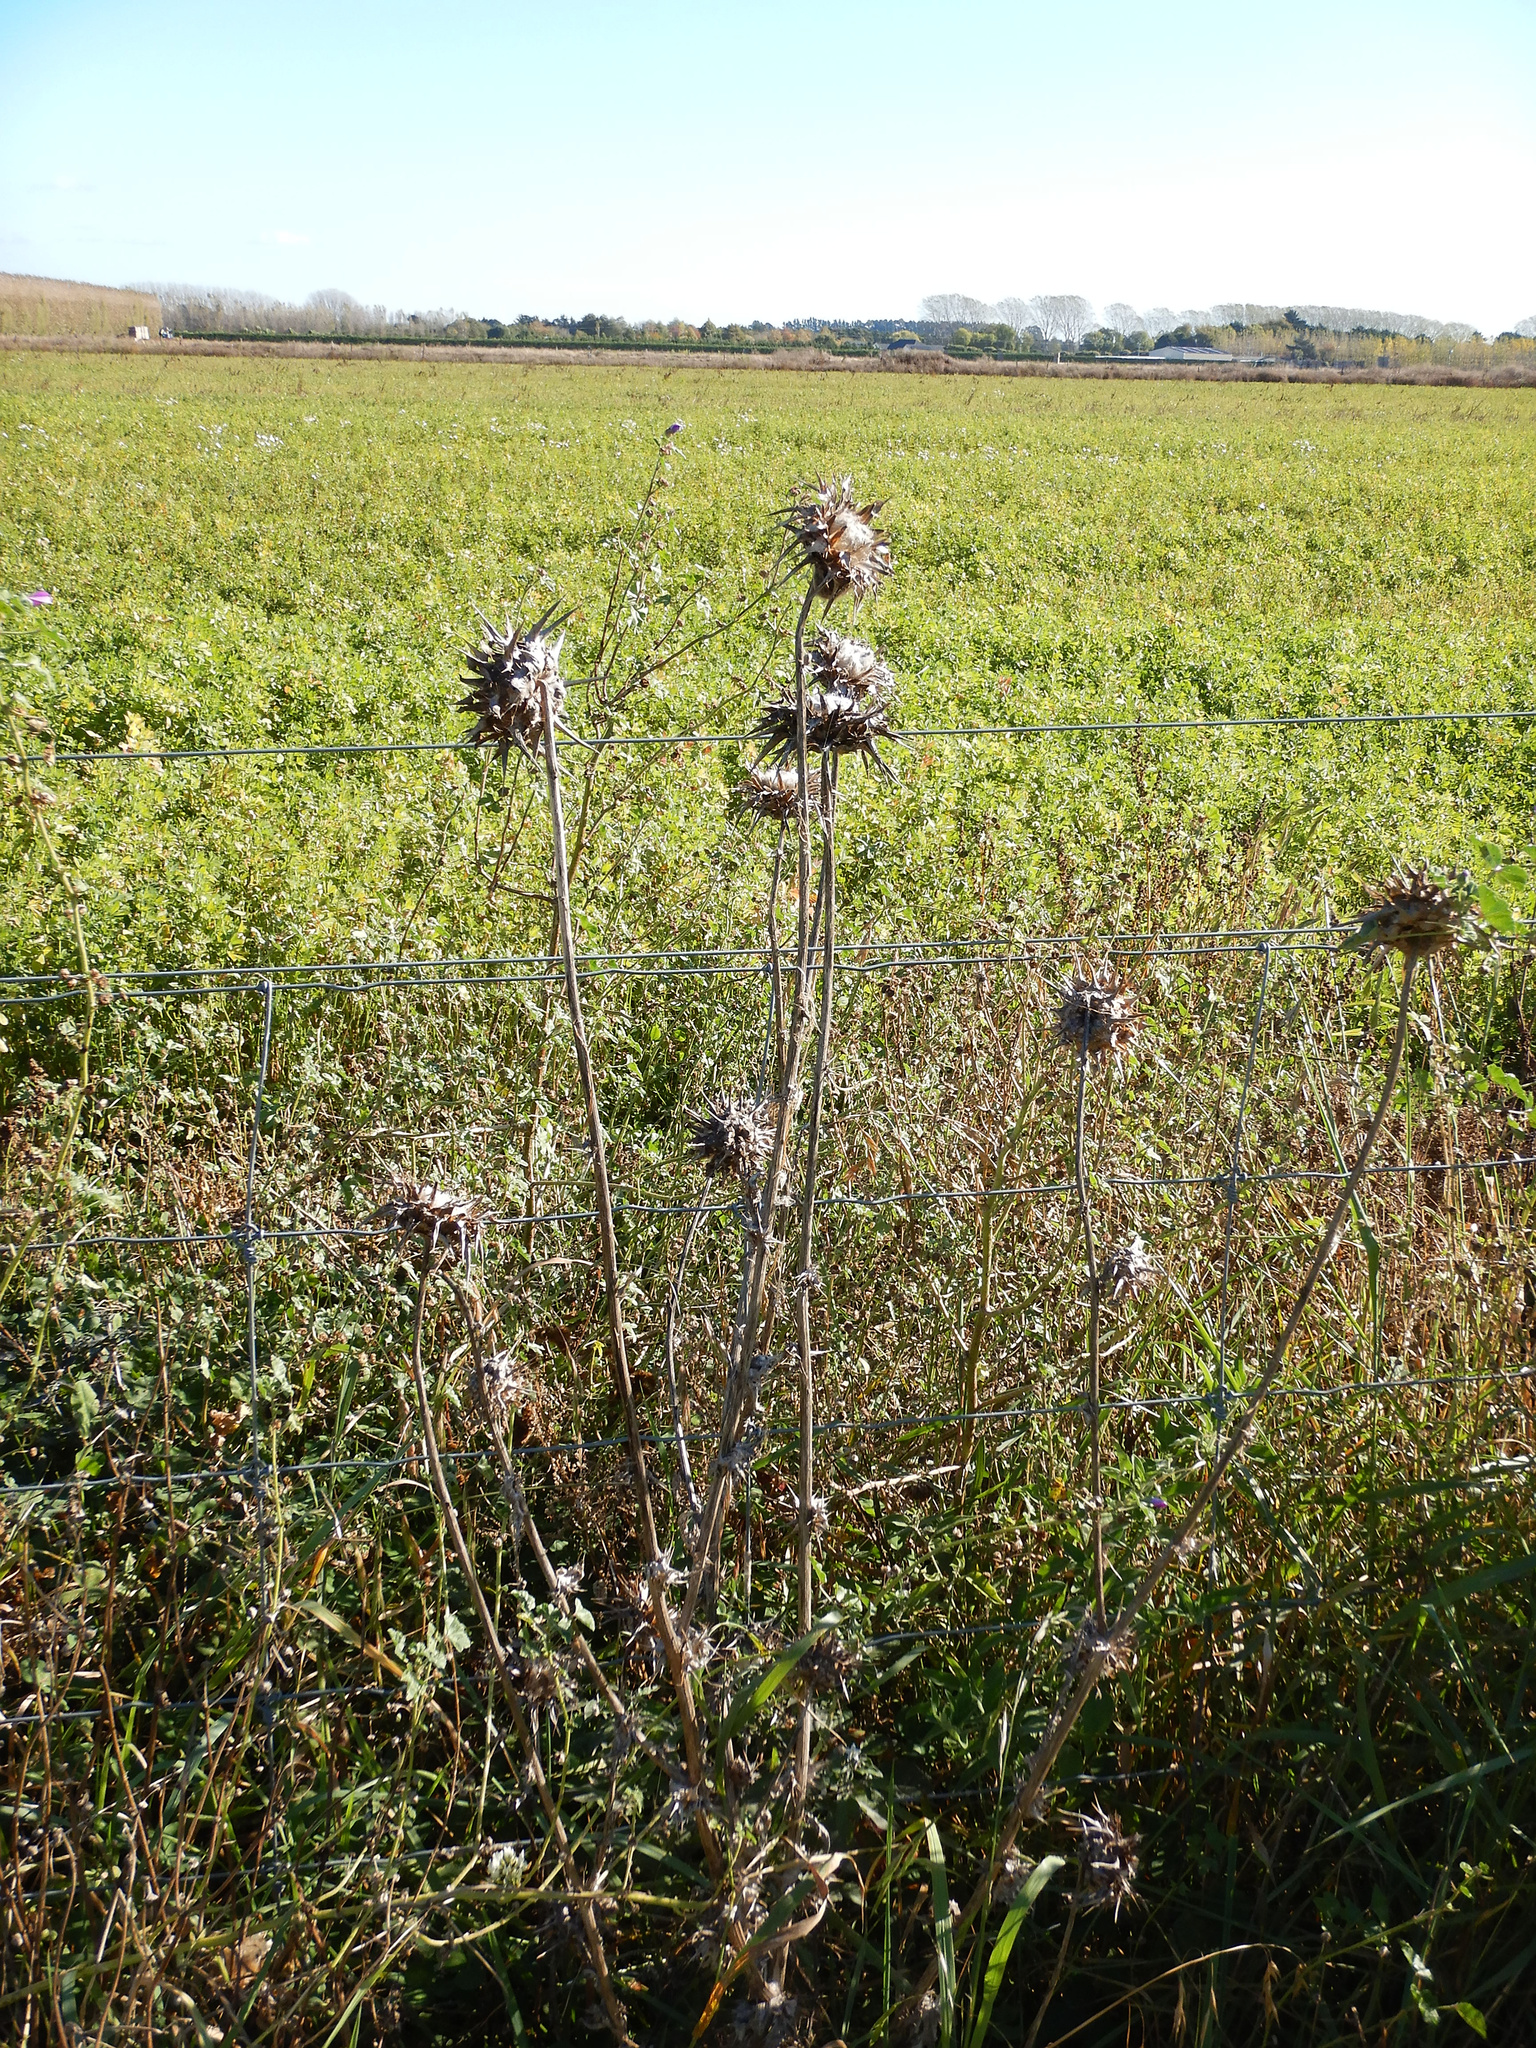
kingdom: Plantae
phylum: Tracheophyta
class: Magnoliopsida
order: Asterales
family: Asteraceae
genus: Silybum
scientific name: Silybum marianum
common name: Milk thistle
